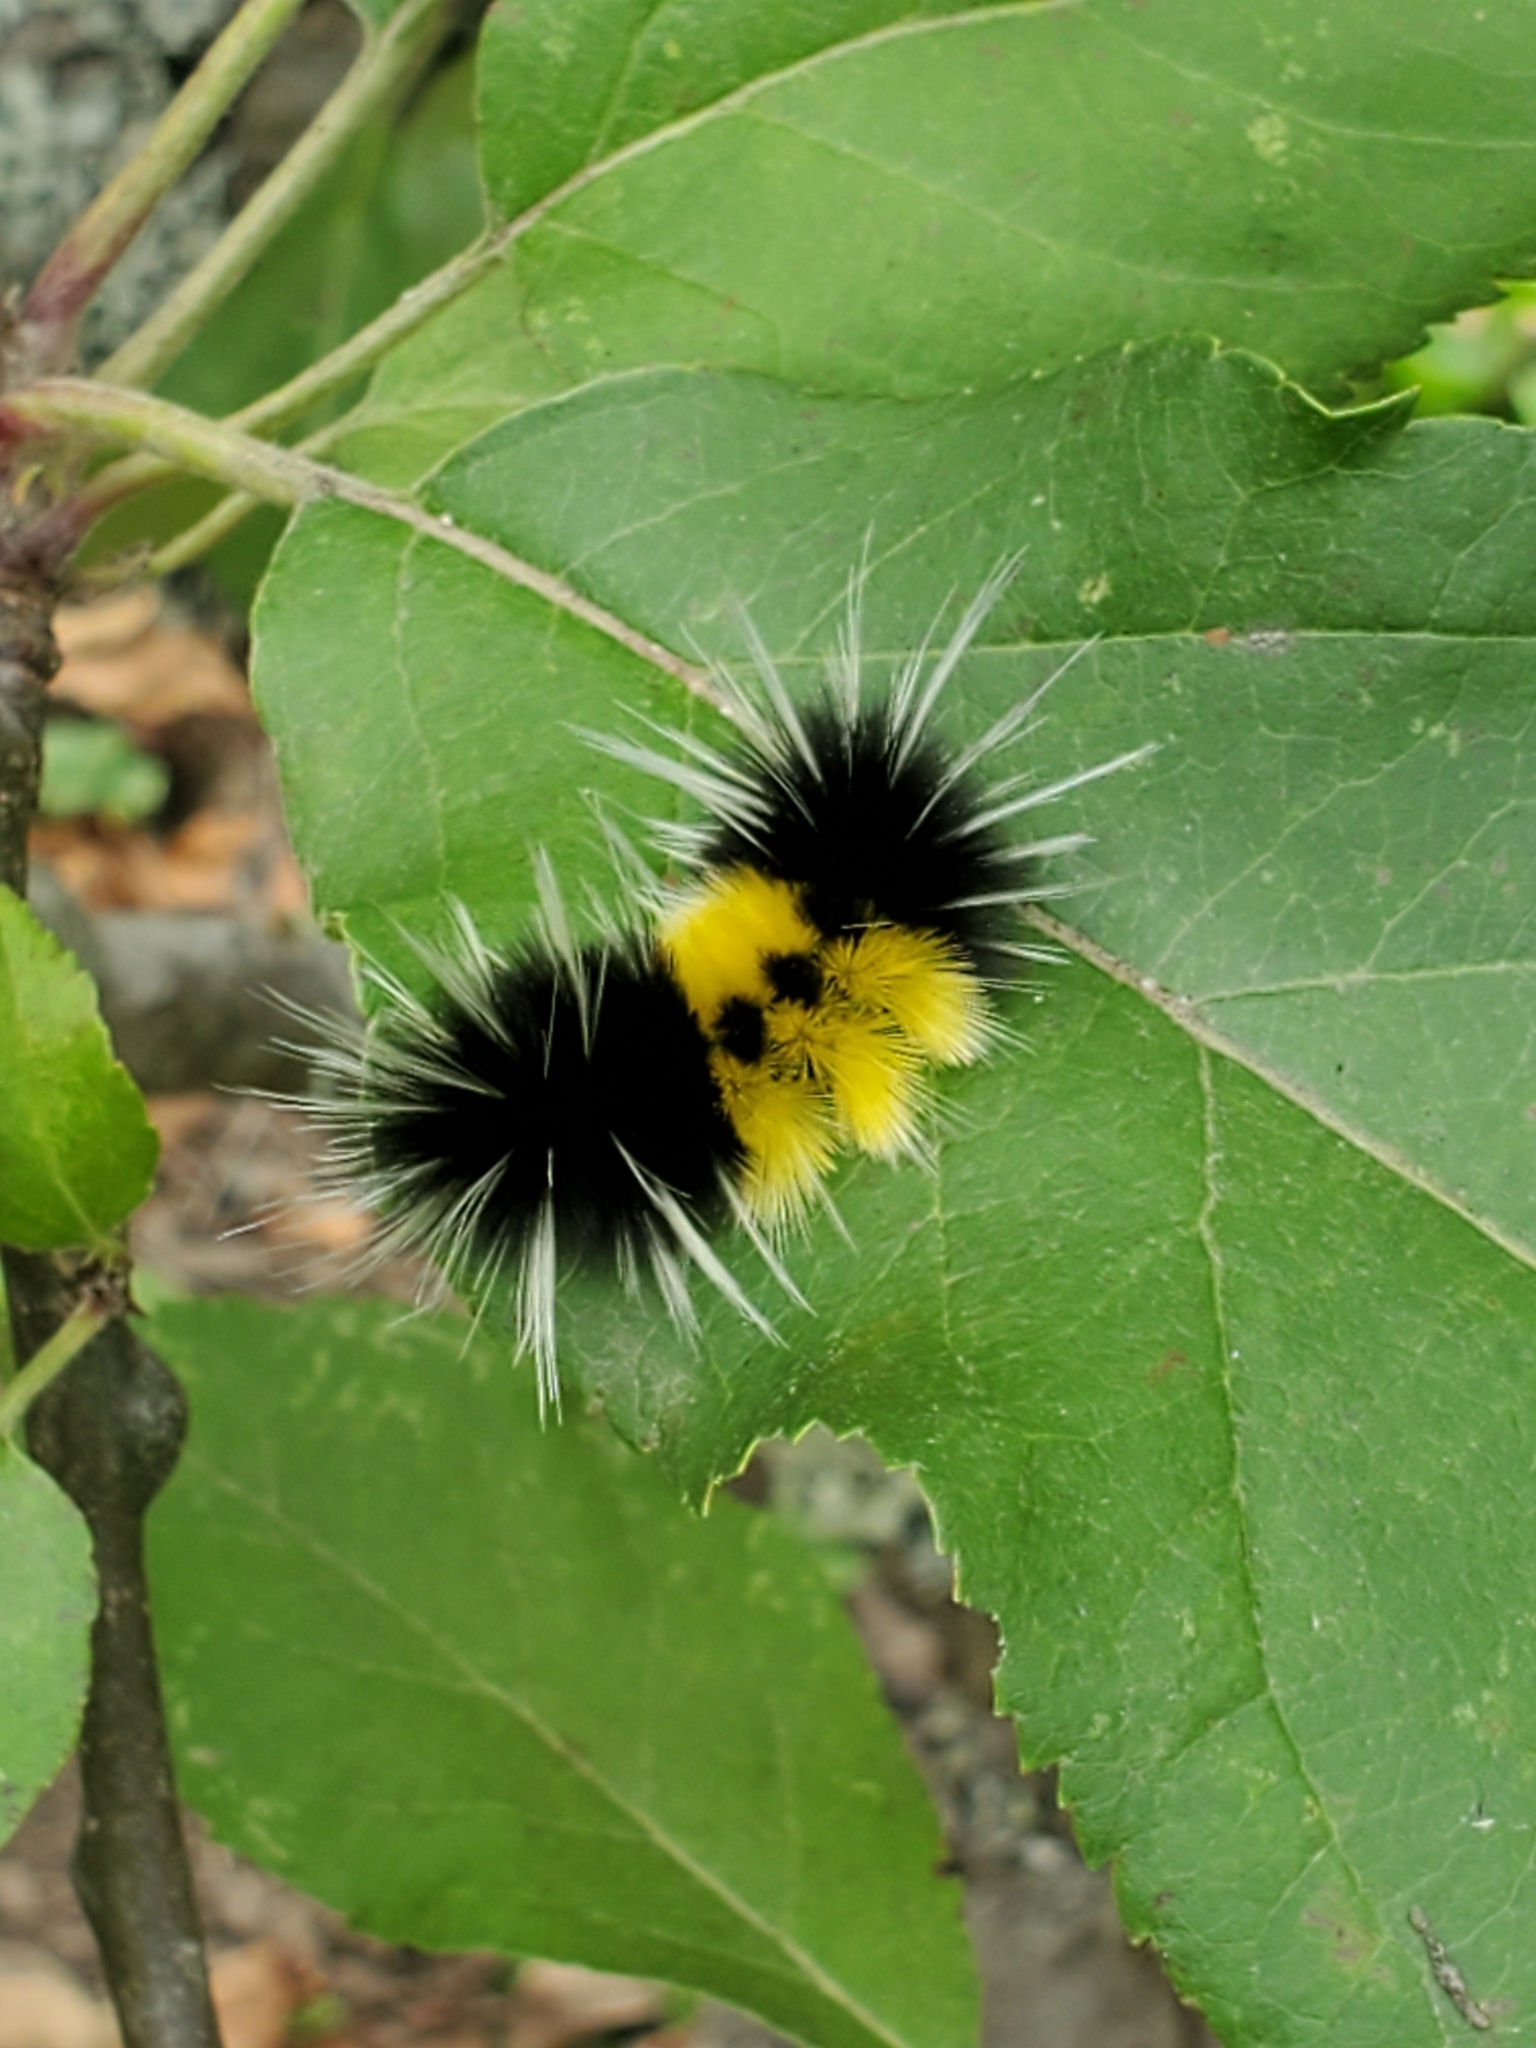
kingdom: Animalia
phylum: Arthropoda
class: Insecta
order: Lepidoptera
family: Erebidae
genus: Lophocampa
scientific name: Lophocampa maculata
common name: Spotted tussock moth
